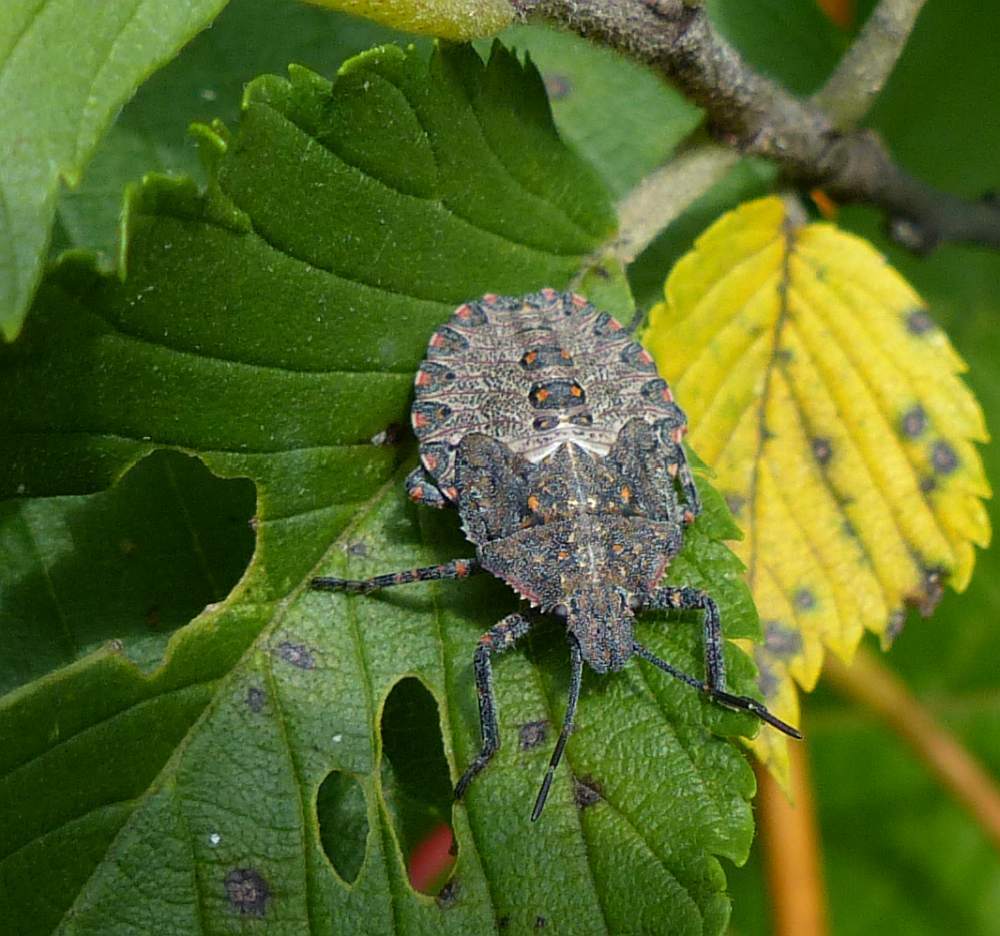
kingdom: Animalia
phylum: Arthropoda
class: Insecta
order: Hemiptera
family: Pentatomidae
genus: Brochymena
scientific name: Brochymena quadripustulata
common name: Four-humped stink bug
